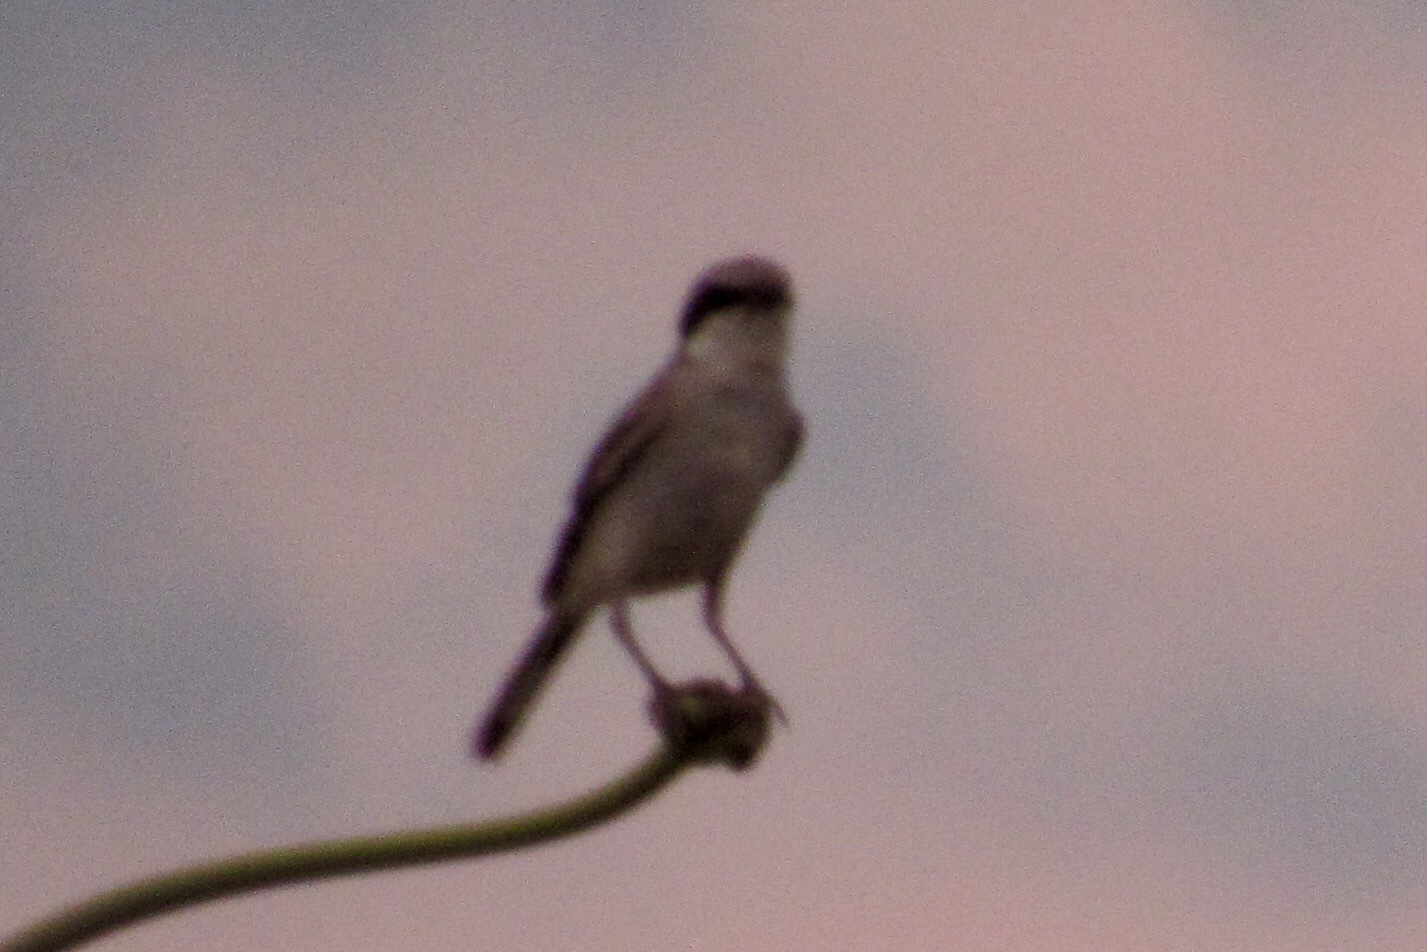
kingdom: Animalia
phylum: Chordata
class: Aves
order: Passeriformes
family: Laniidae
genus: Lanius
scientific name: Lanius ludovicianus
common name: Loggerhead shrike
